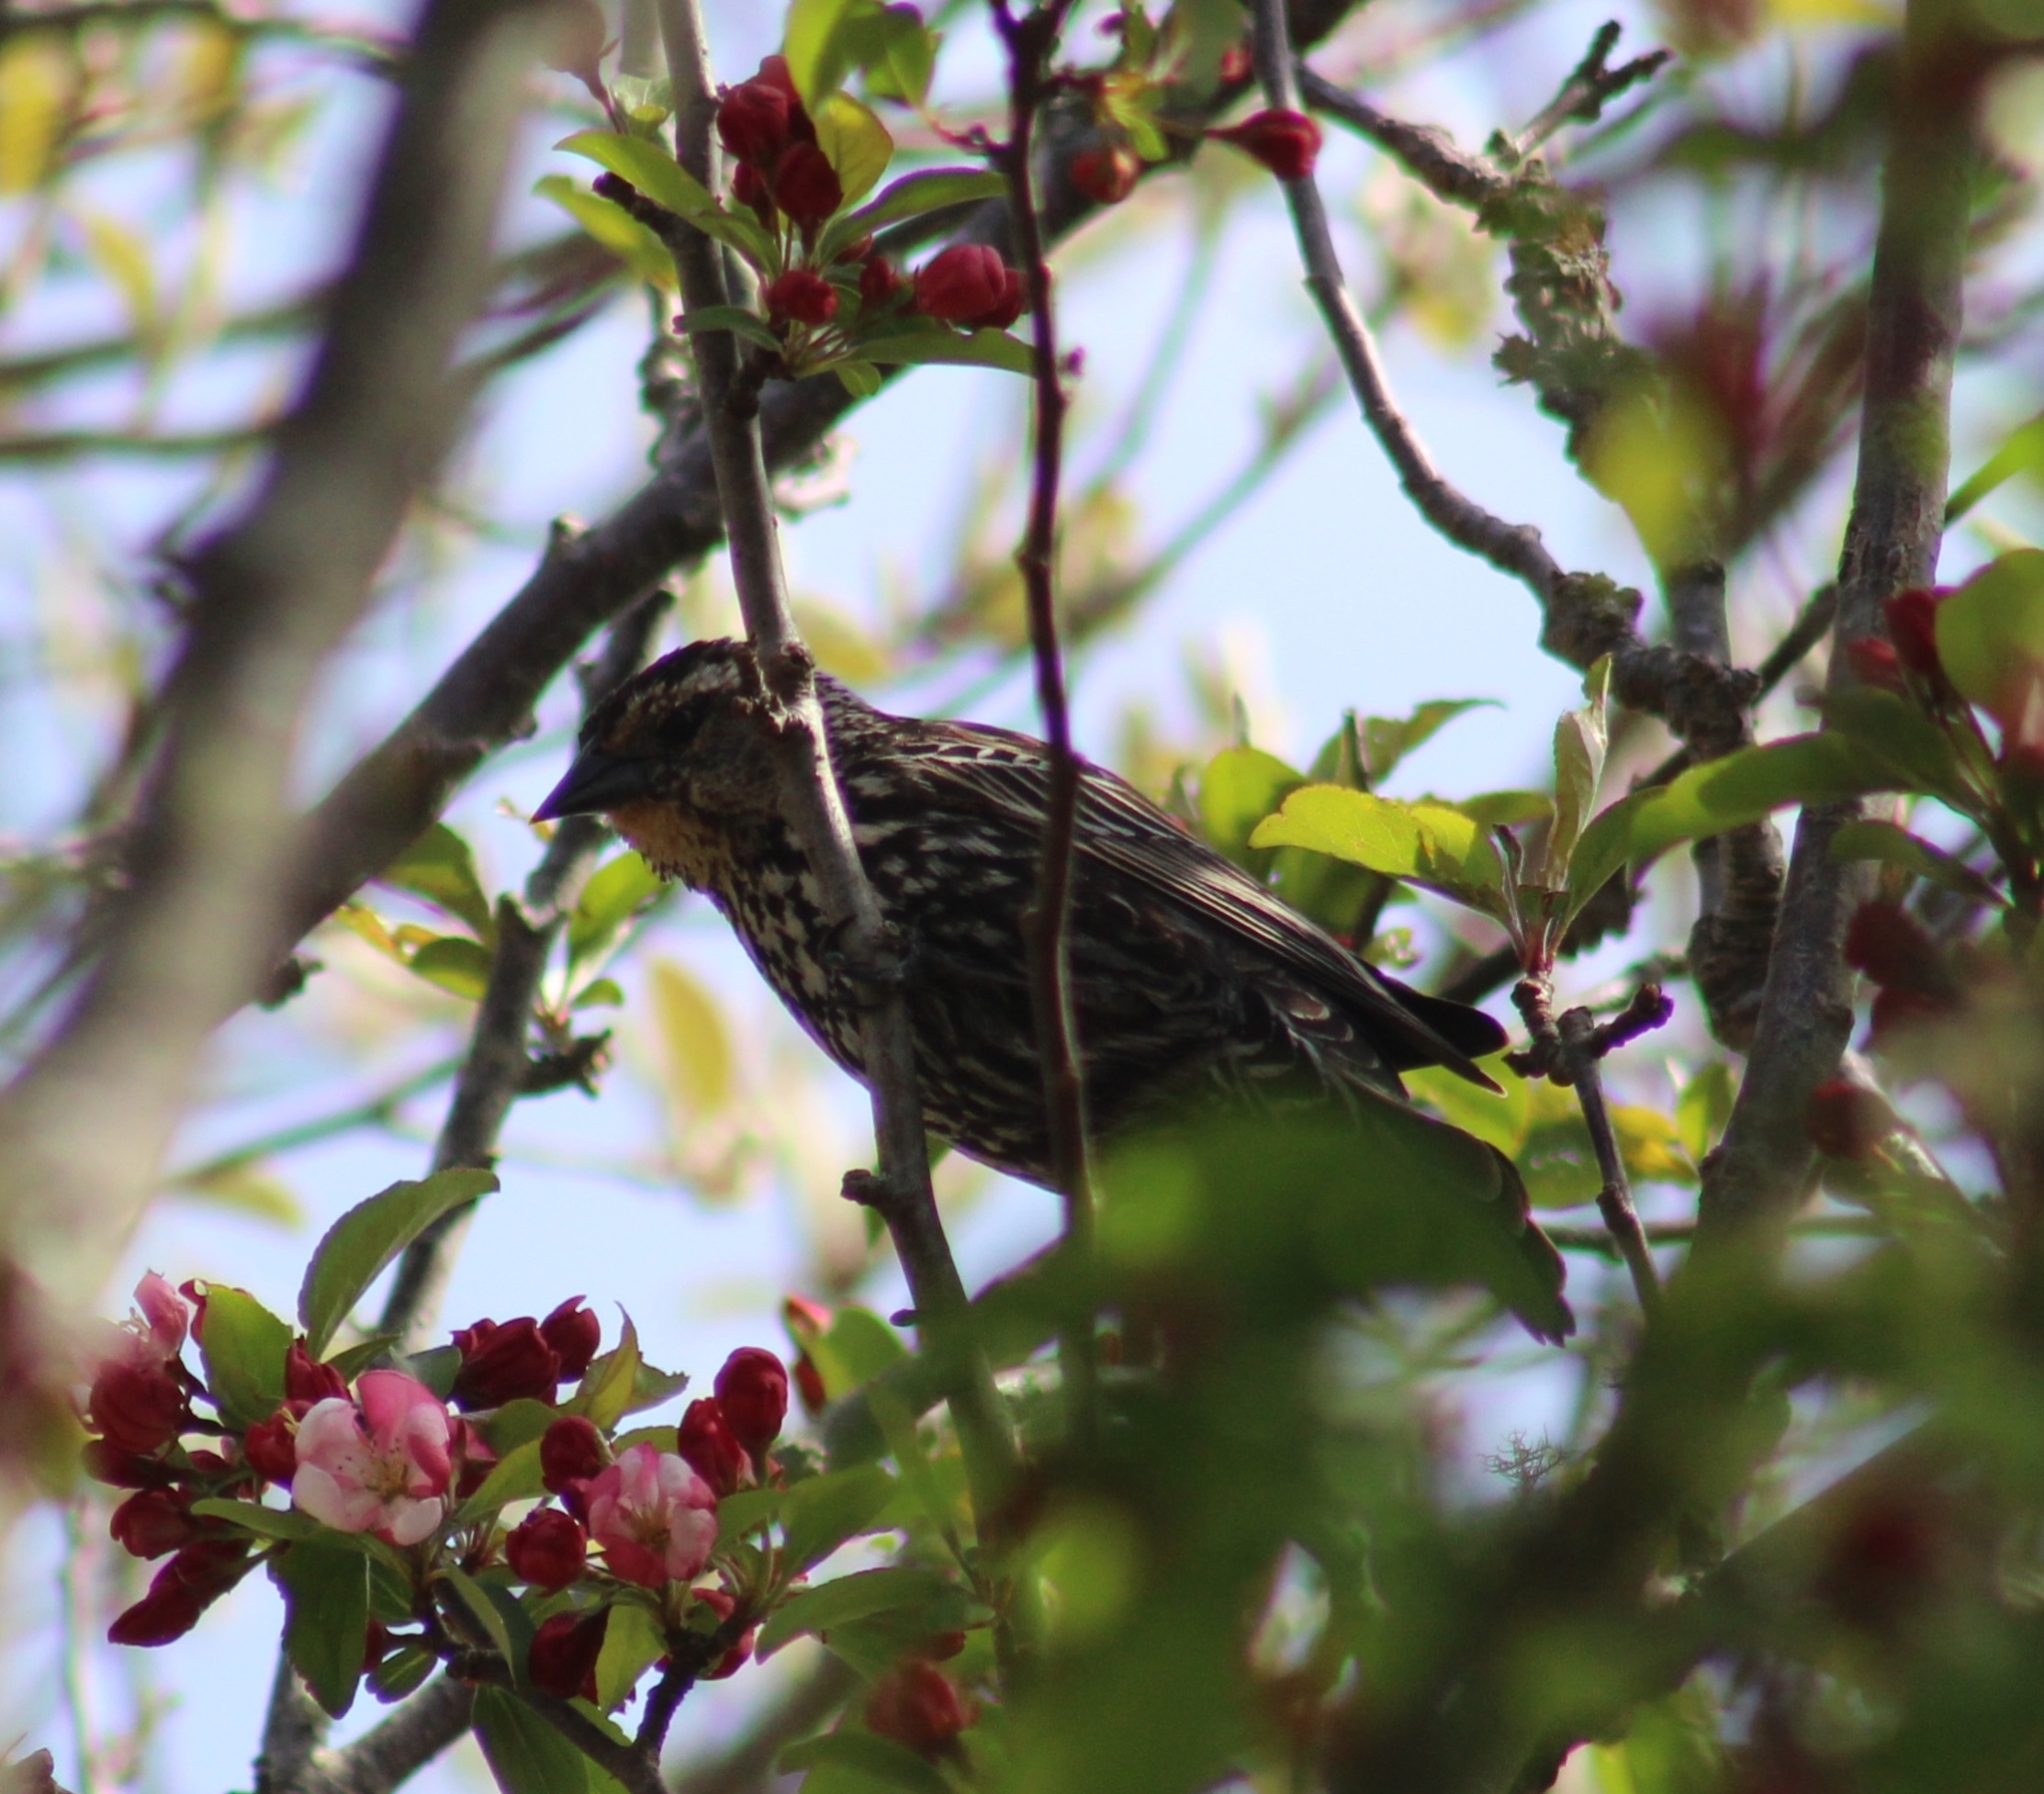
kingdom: Animalia
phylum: Chordata
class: Aves
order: Passeriformes
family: Icteridae
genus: Agelaius
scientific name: Agelaius phoeniceus
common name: Red-winged blackbird
